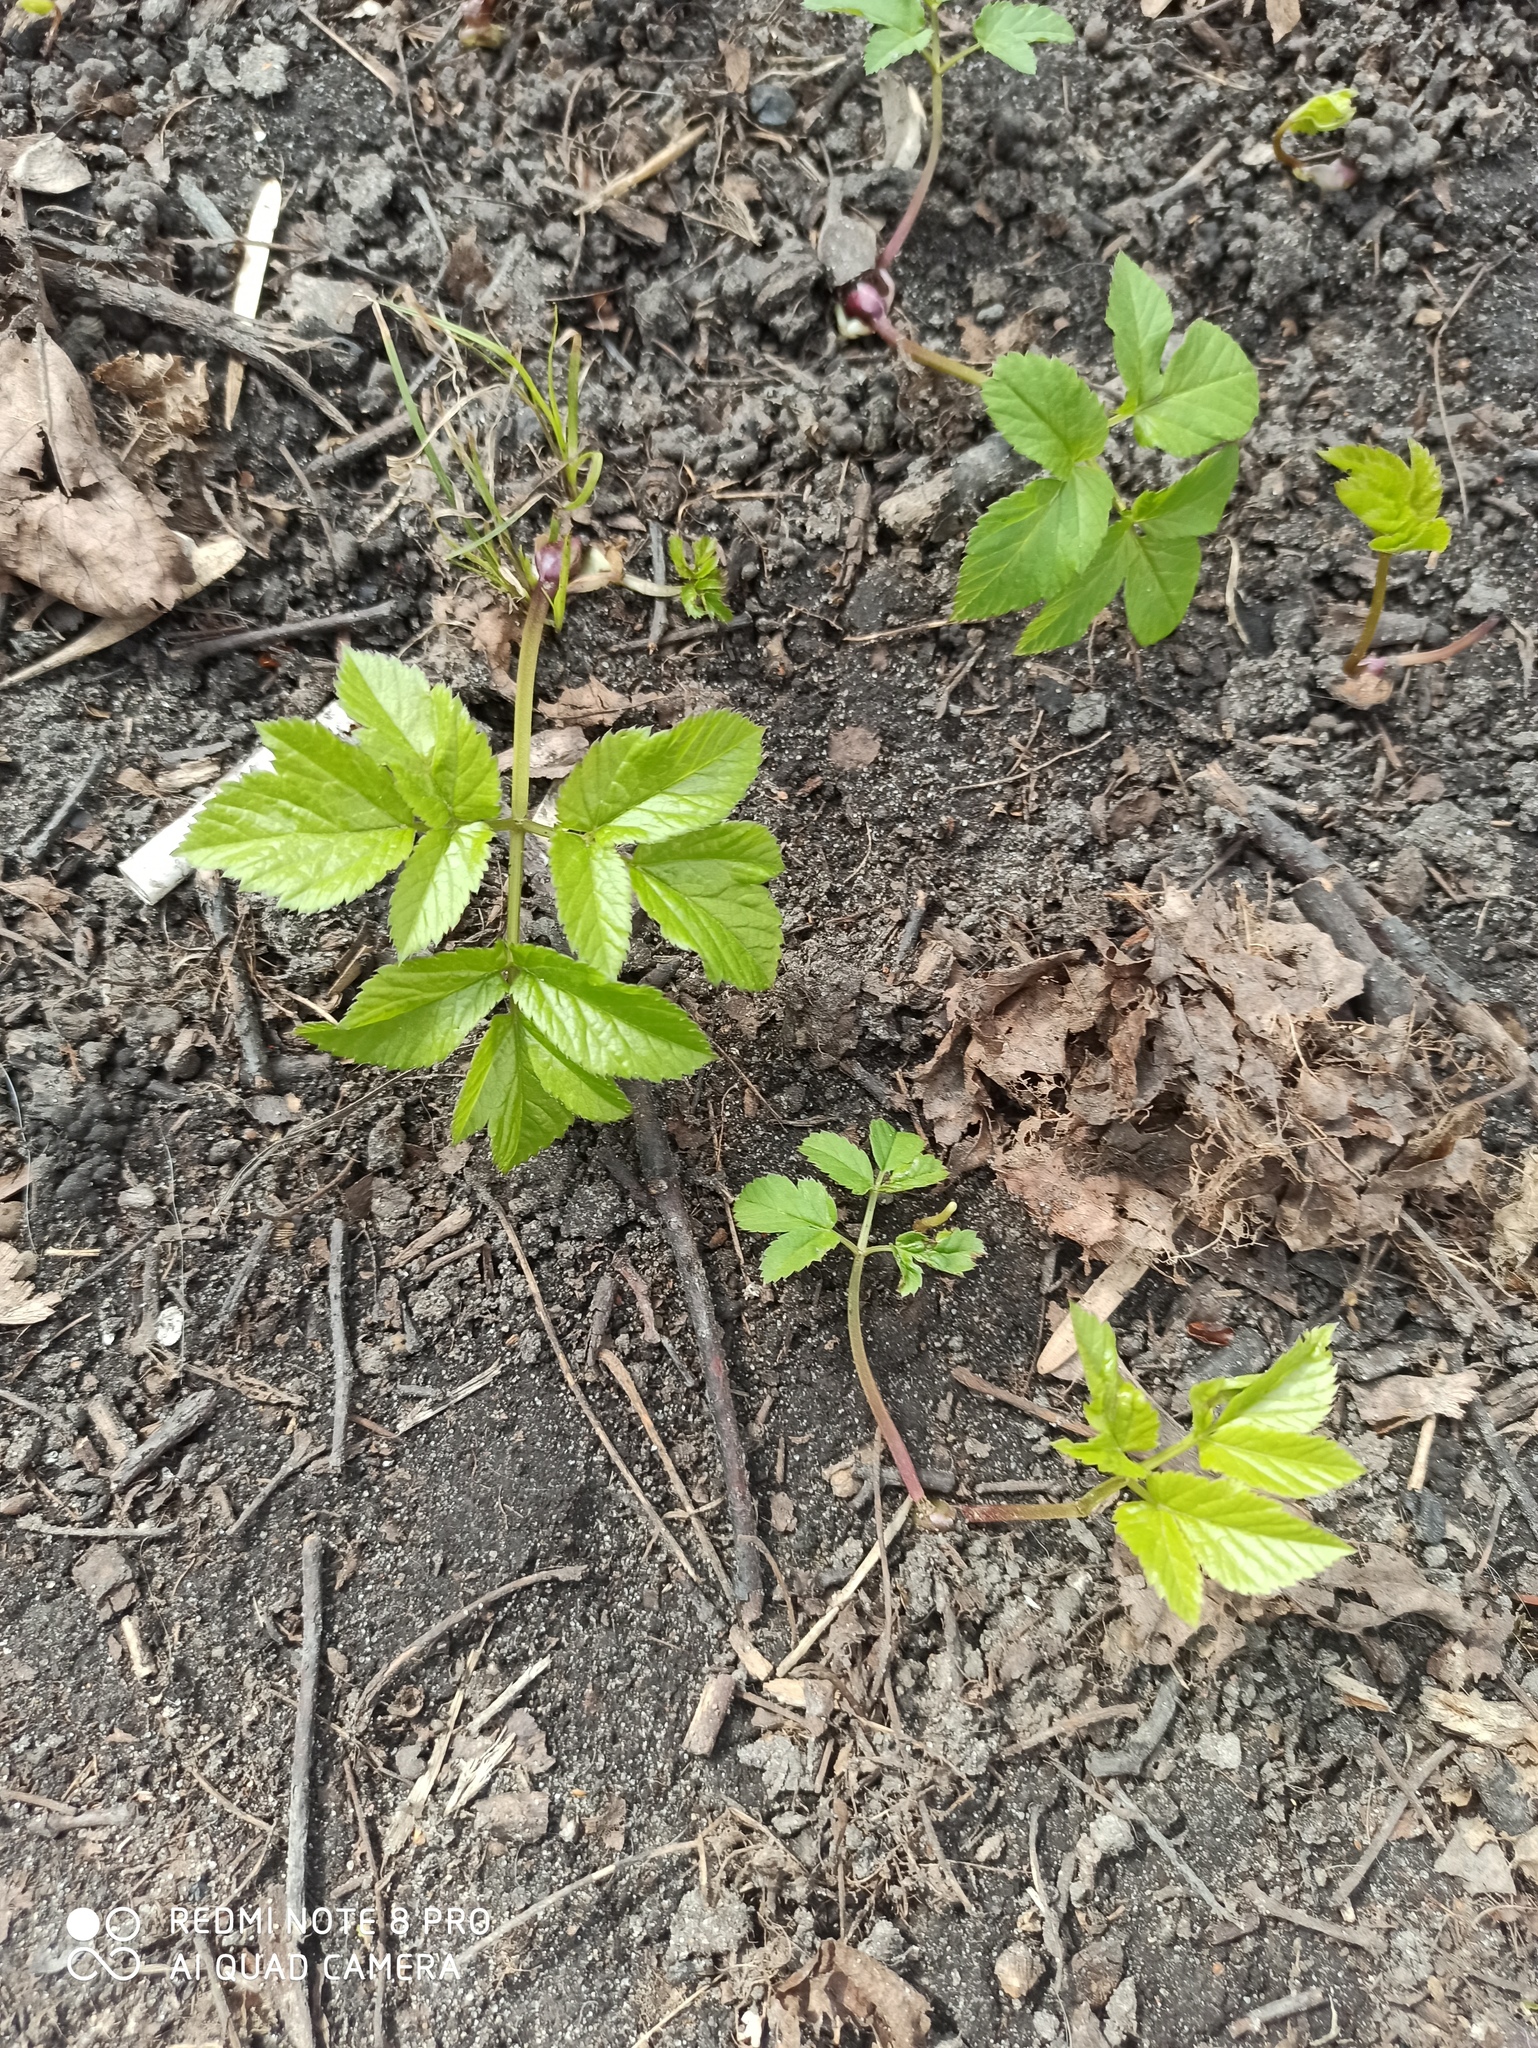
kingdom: Plantae
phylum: Tracheophyta
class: Magnoliopsida
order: Apiales
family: Apiaceae
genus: Aegopodium
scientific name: Aegopodium podagraria
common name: Ground-elder
